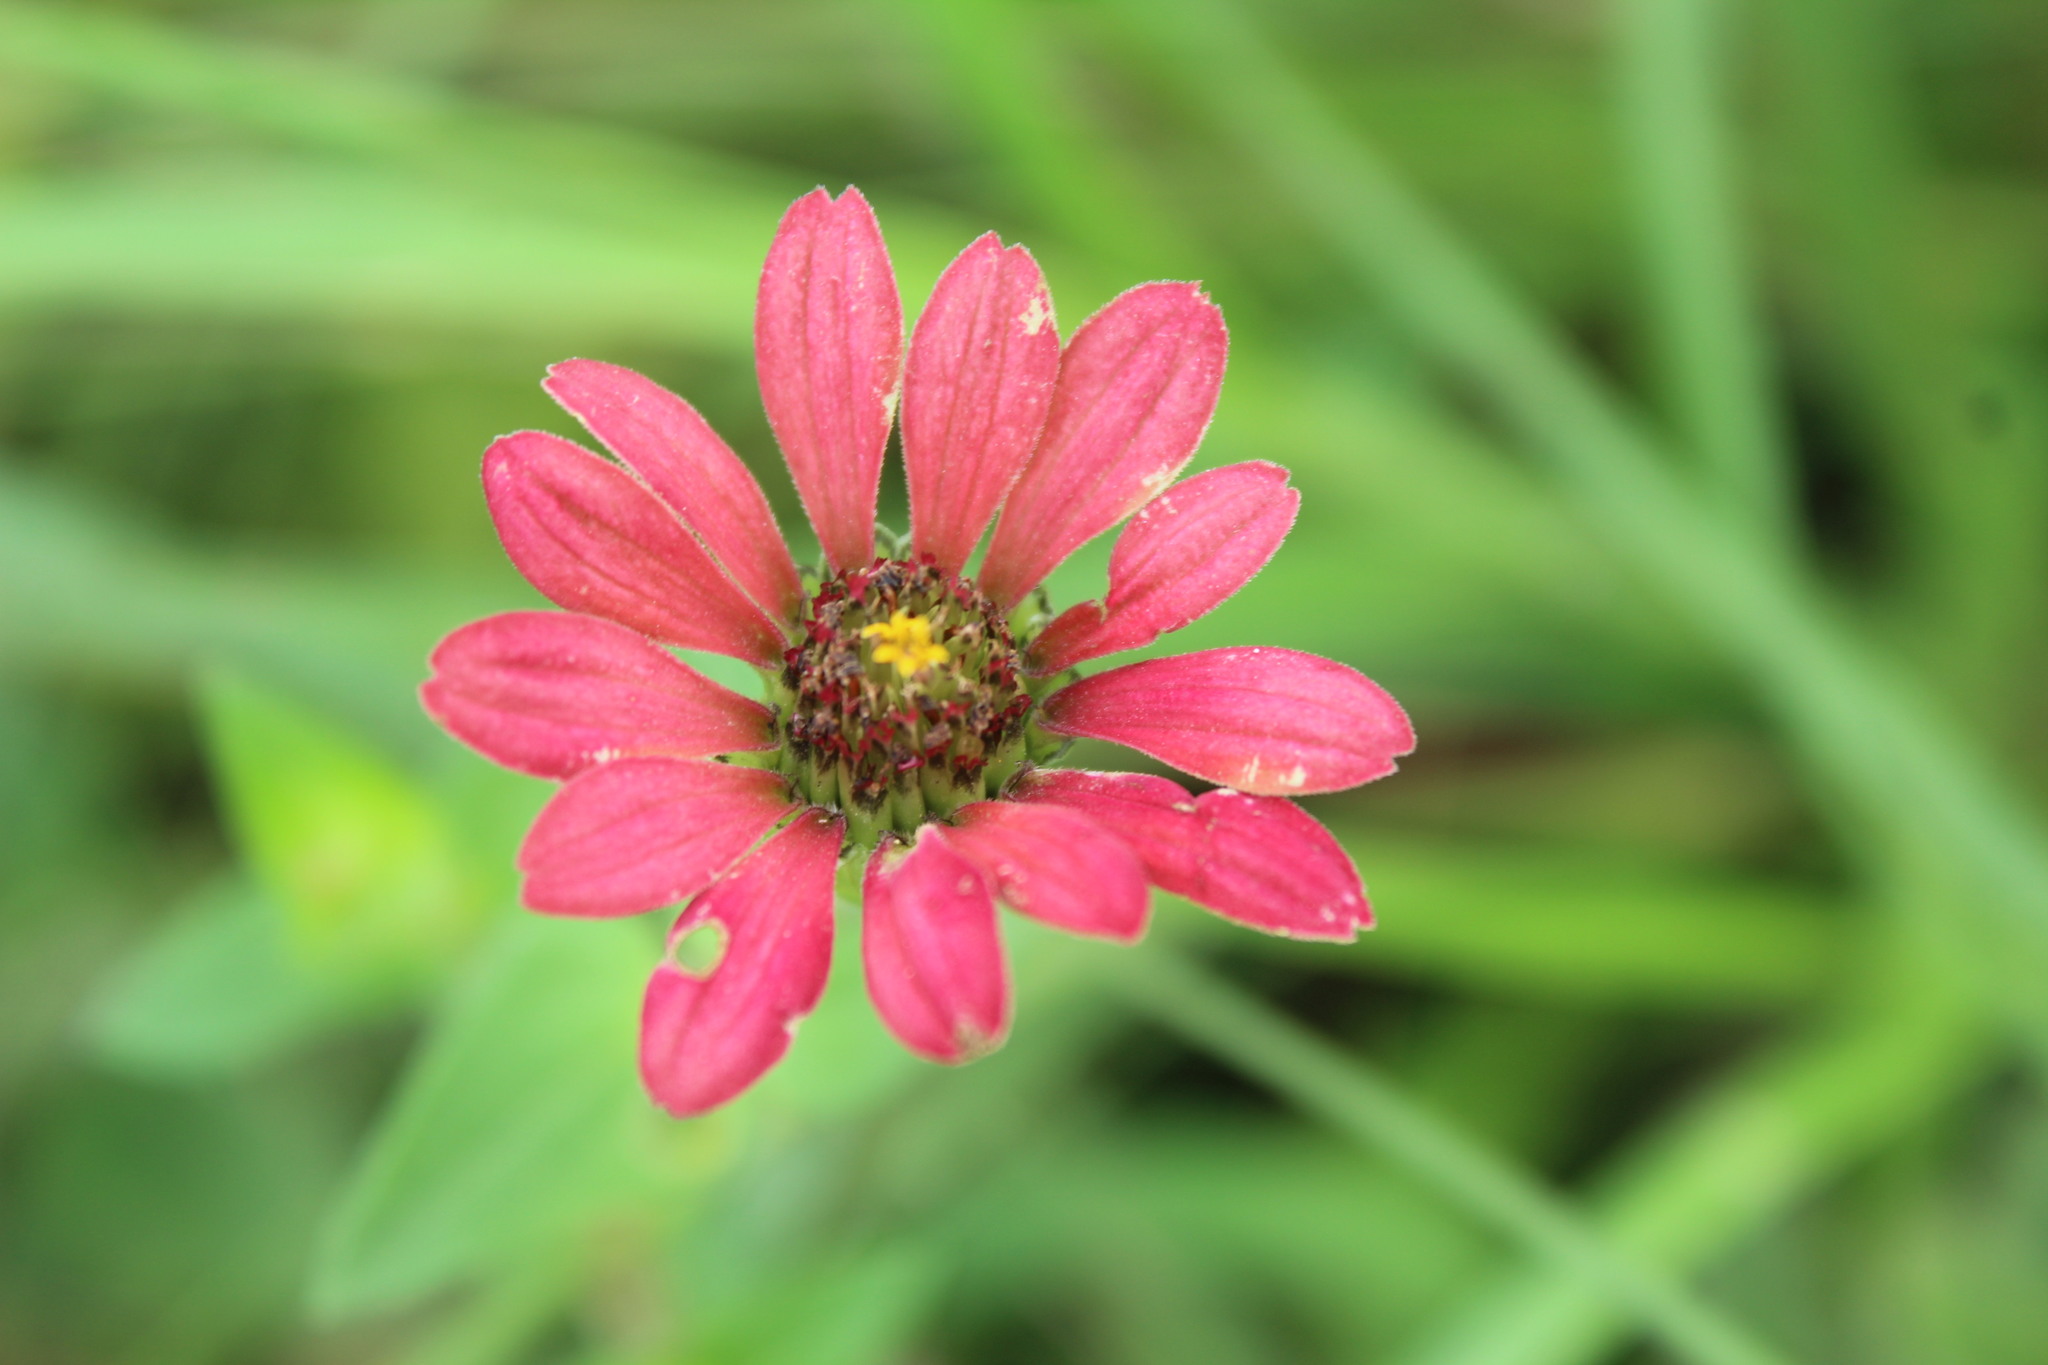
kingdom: Plantae
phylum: Tracheophyta
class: Magnoliopsida
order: Asterales
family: Asteraceae
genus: Zinnia
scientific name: Zinnia peruviana
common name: Peruvian zinnia
